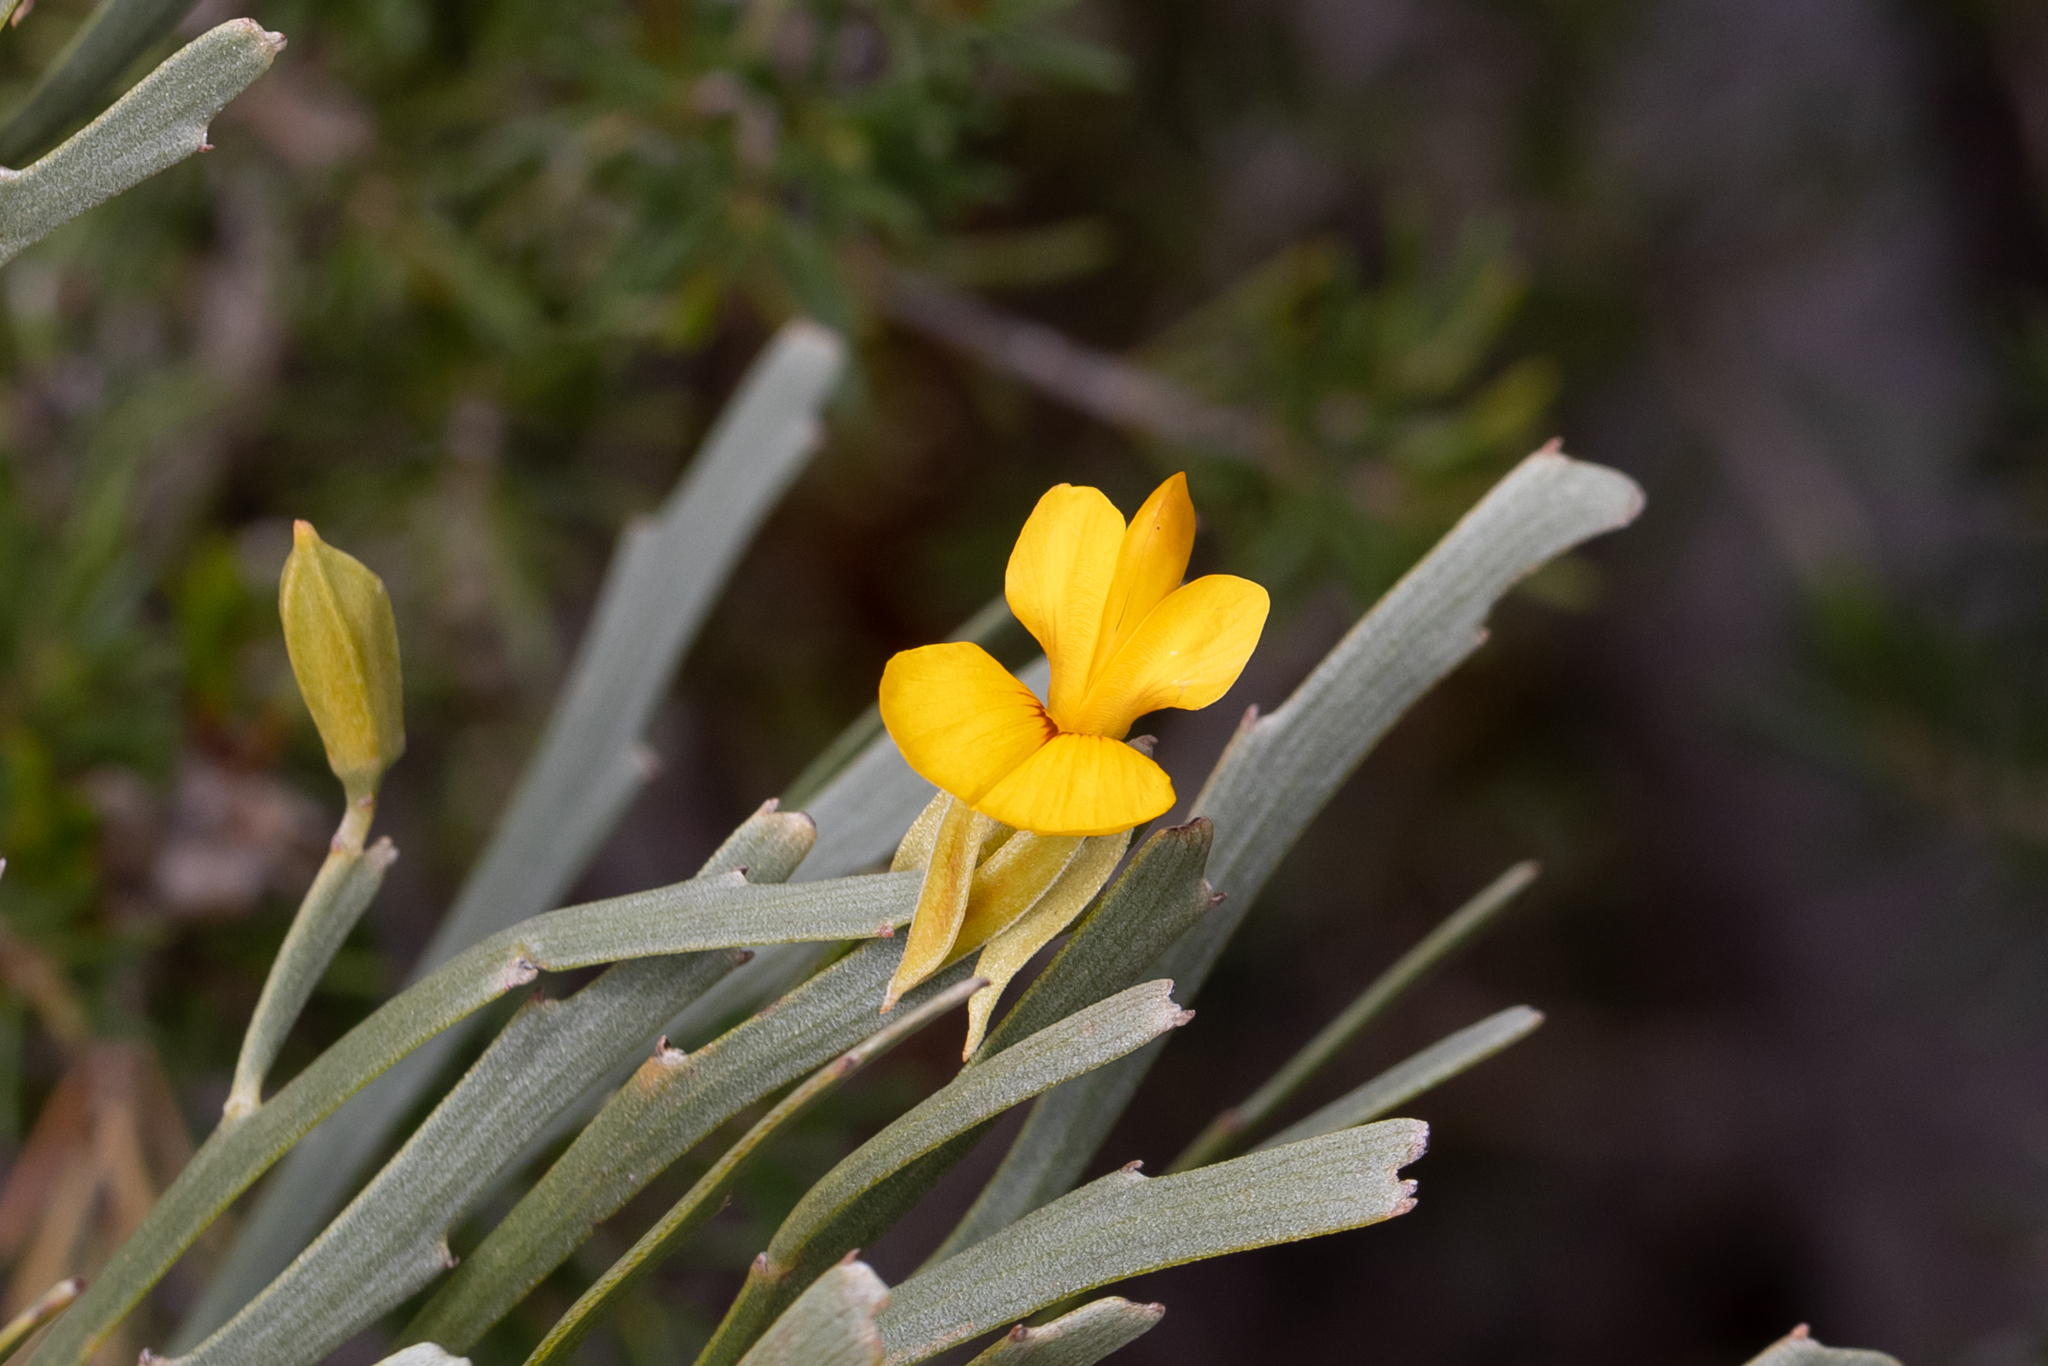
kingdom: Plantae
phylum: Tracheophyta
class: Magnoliopsida
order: Fabales
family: Fabaceae
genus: Jacksonia
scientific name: Jacksonia compressa
